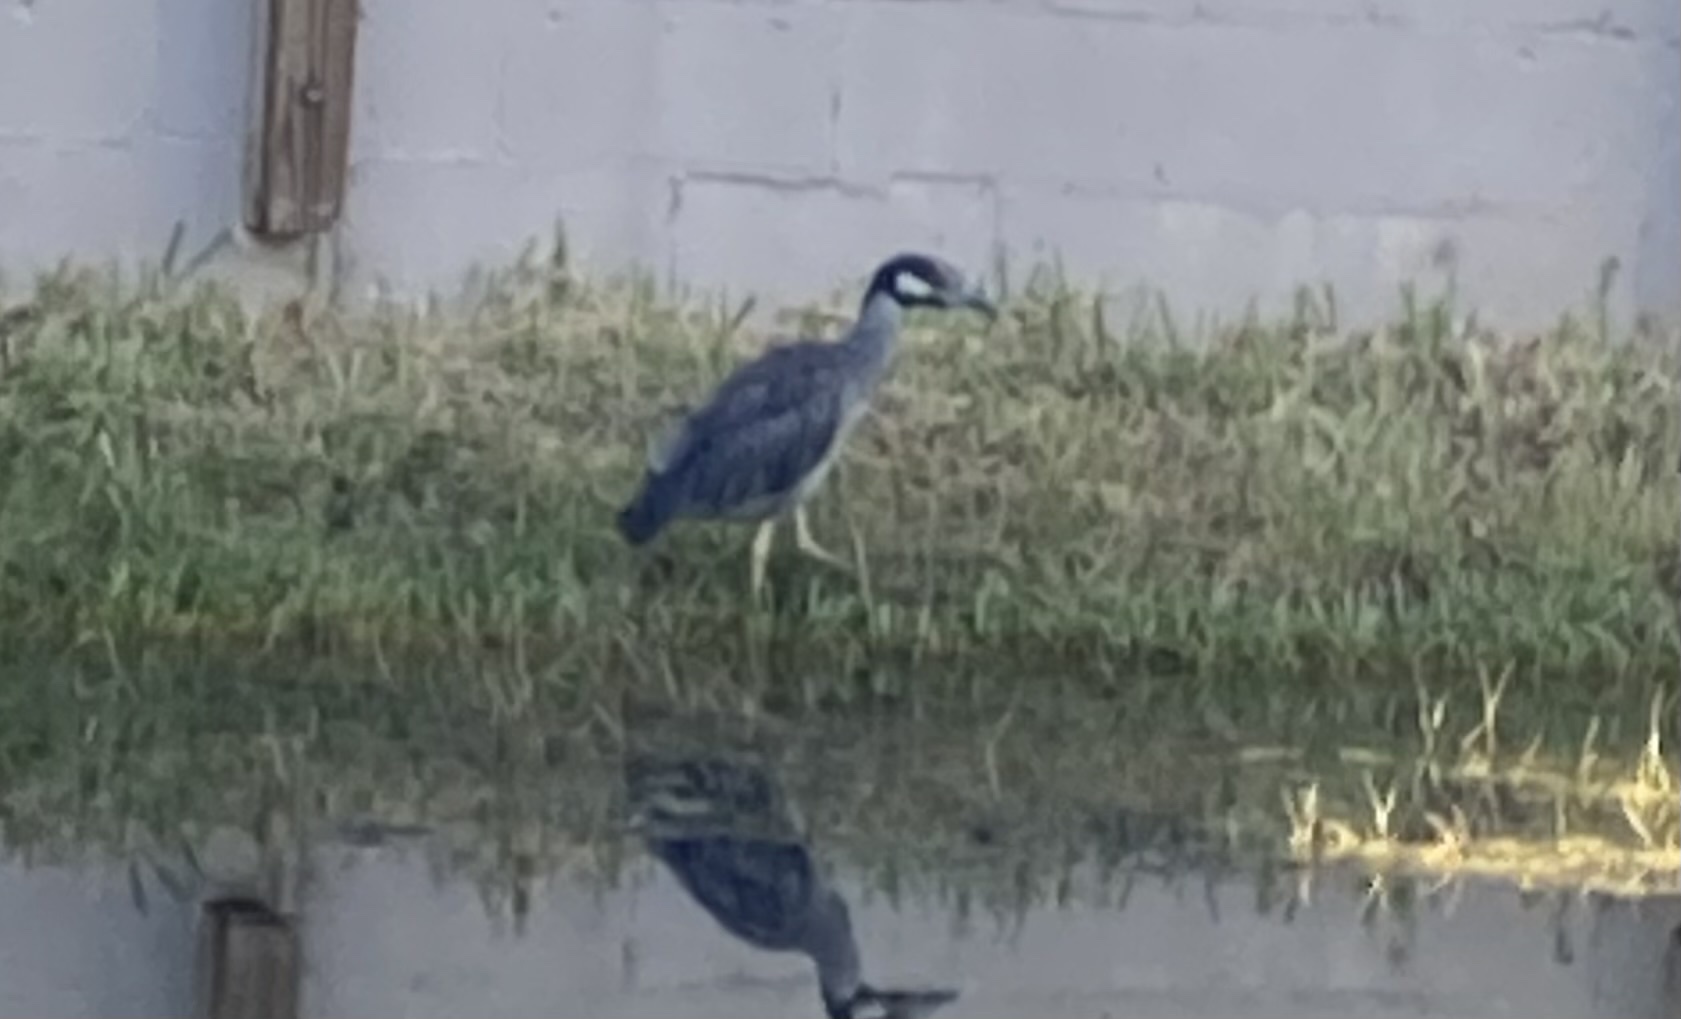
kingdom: Animalia
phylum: Chordata
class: Aves
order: Pelecaniformes
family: Ardeidae
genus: Nyctanassa
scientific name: Nyctanassa violacea
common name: Yellow-crowned night heron
